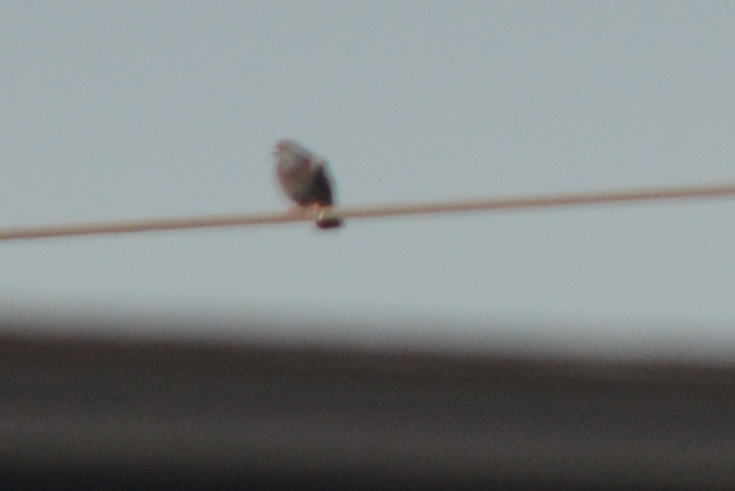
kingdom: Animalia
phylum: Chordata
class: Aves
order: Columbiformes
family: Columbidae
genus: Columba
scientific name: Columba livia
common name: Rock pigeon
